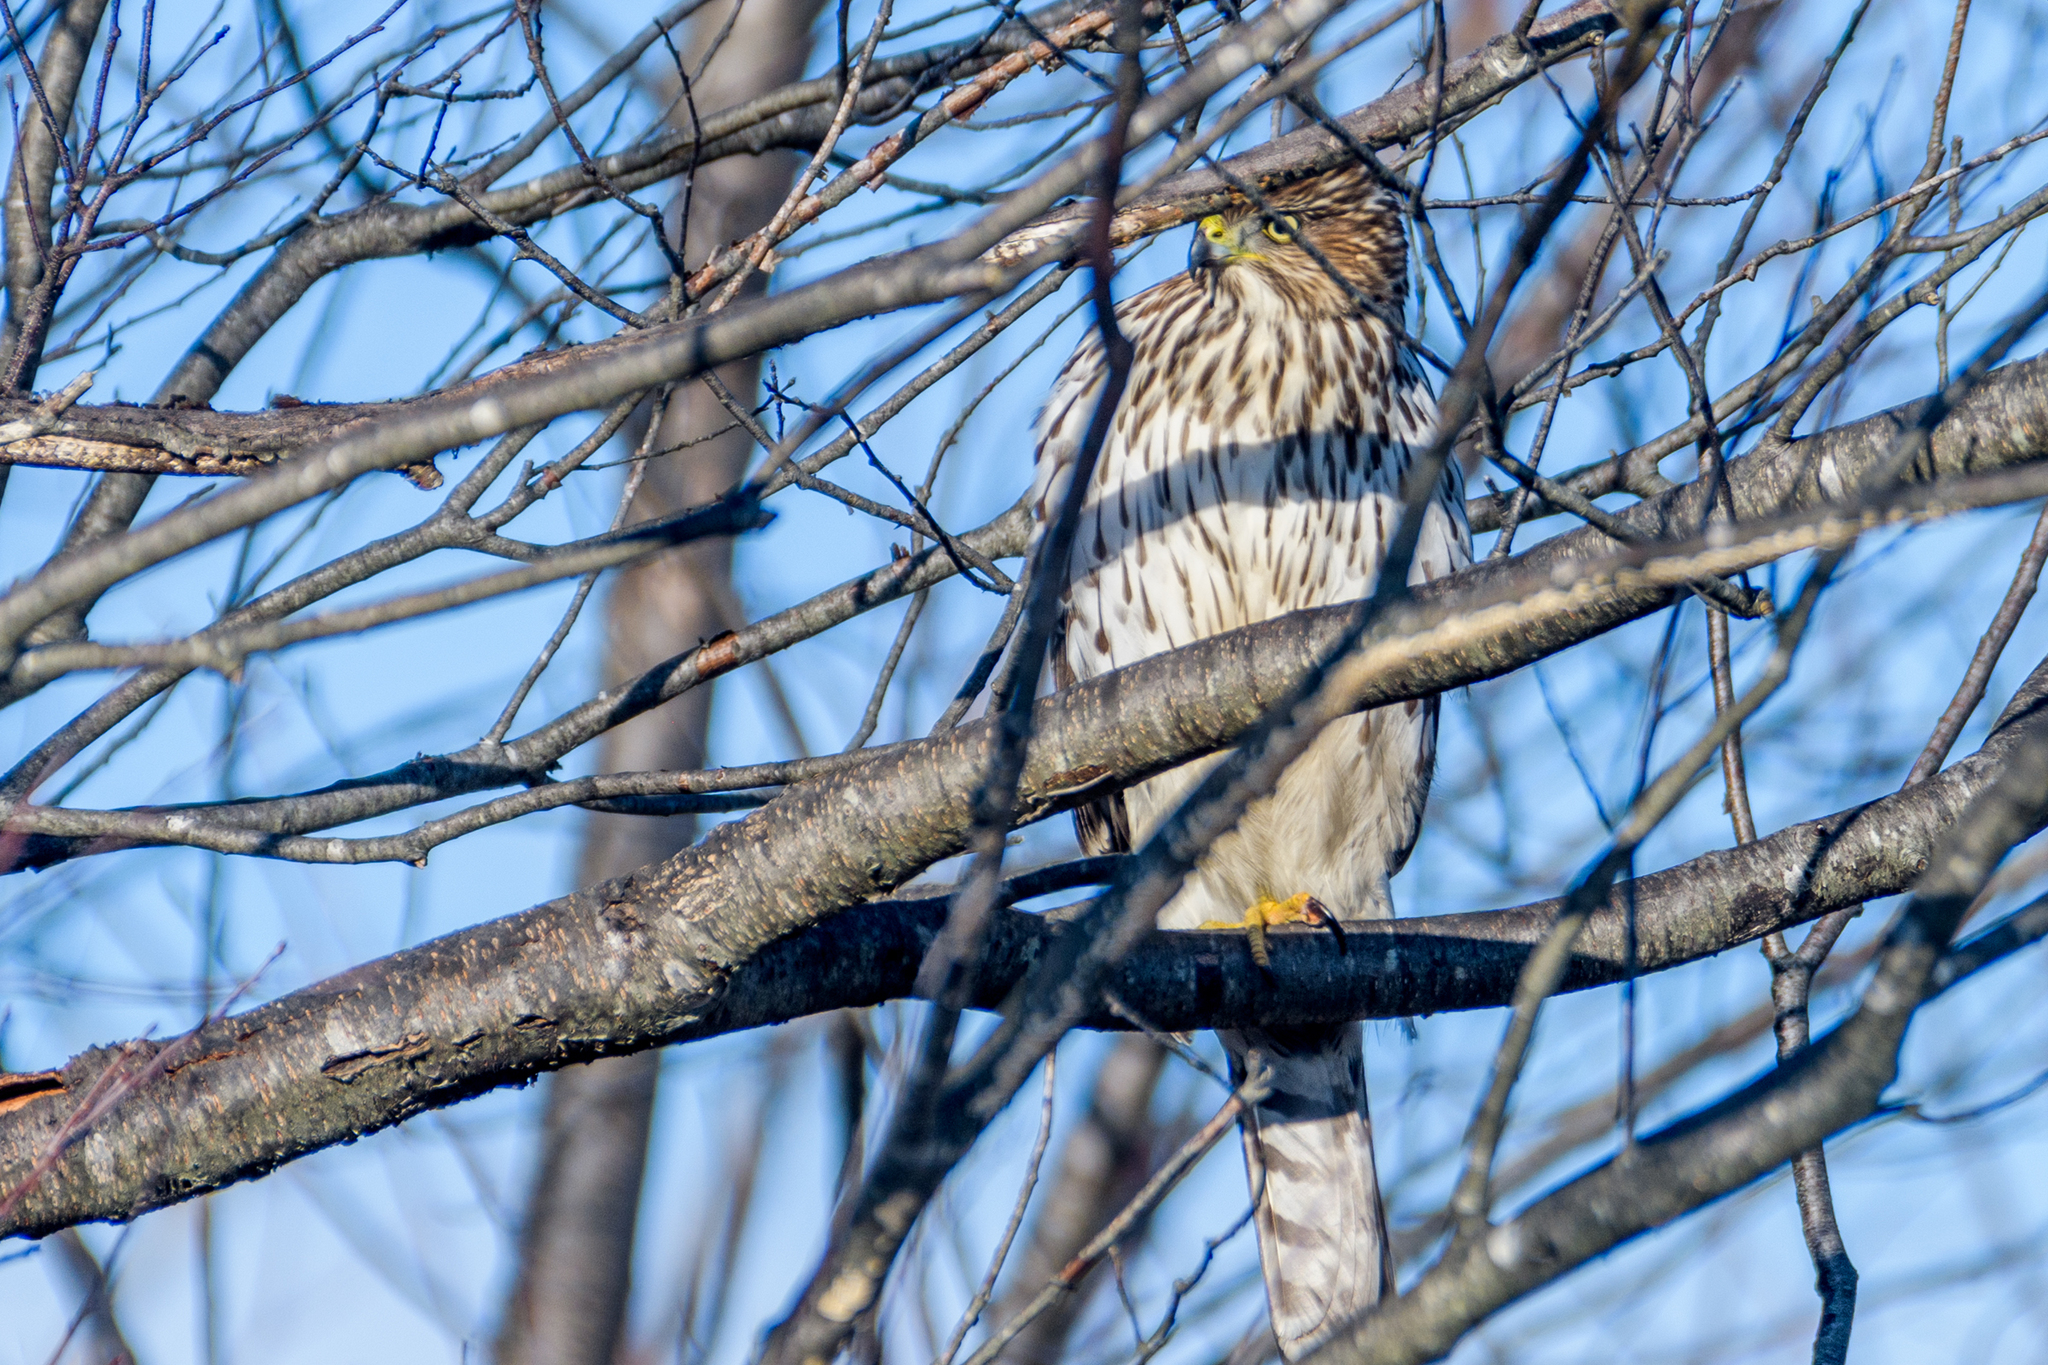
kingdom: Animalia
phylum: Chordata
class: Aves
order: Accipitriformes
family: Accipitridae
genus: Accipiter
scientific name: Accipiter cooperii
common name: Cooper's hawk
